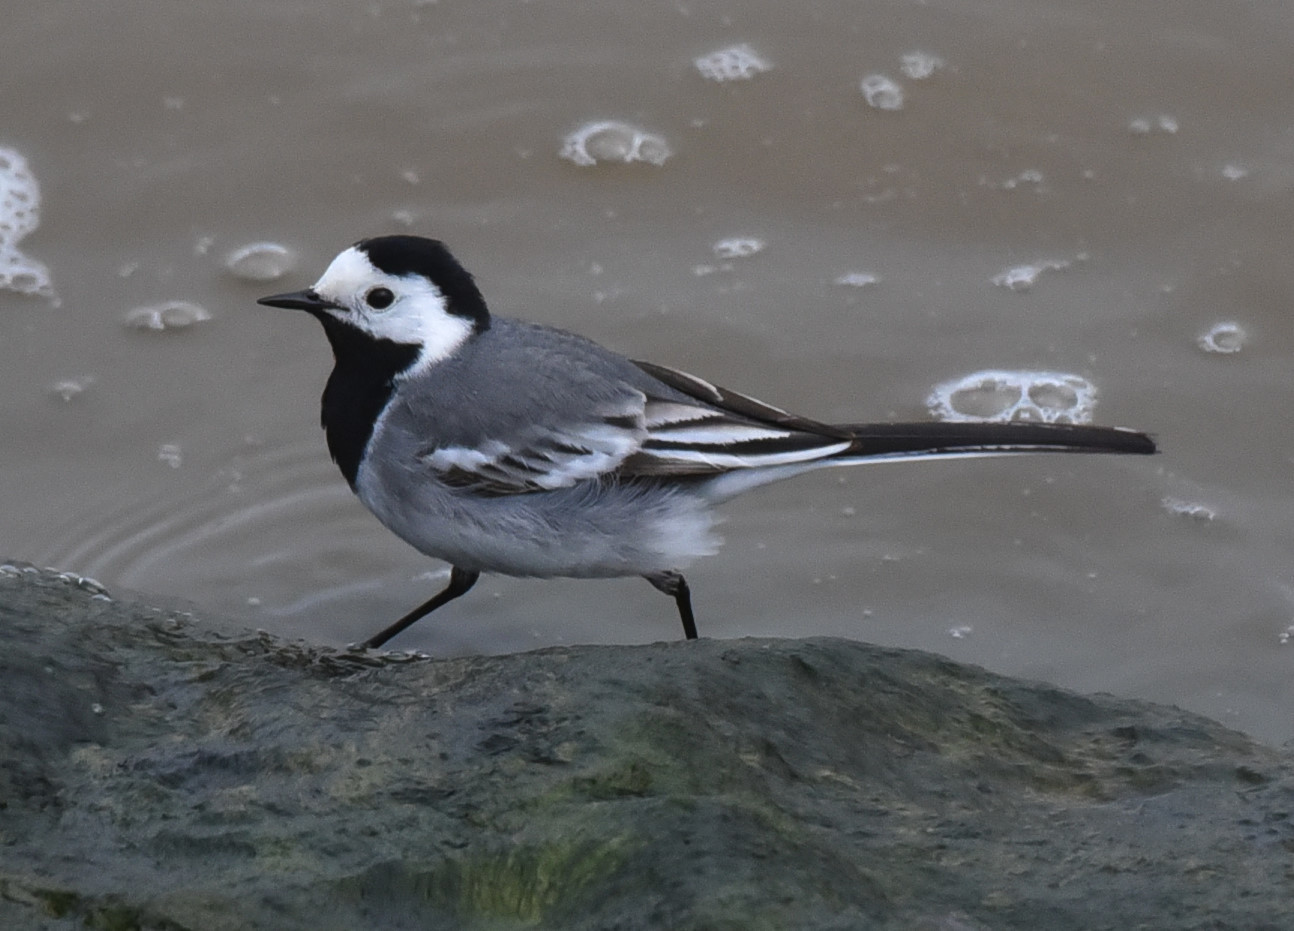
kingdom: Animalia
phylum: Chordata
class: Aves
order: Passeriformes
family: Motacillidae
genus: Motacilla
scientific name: Motacilla alba
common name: White wagtail
